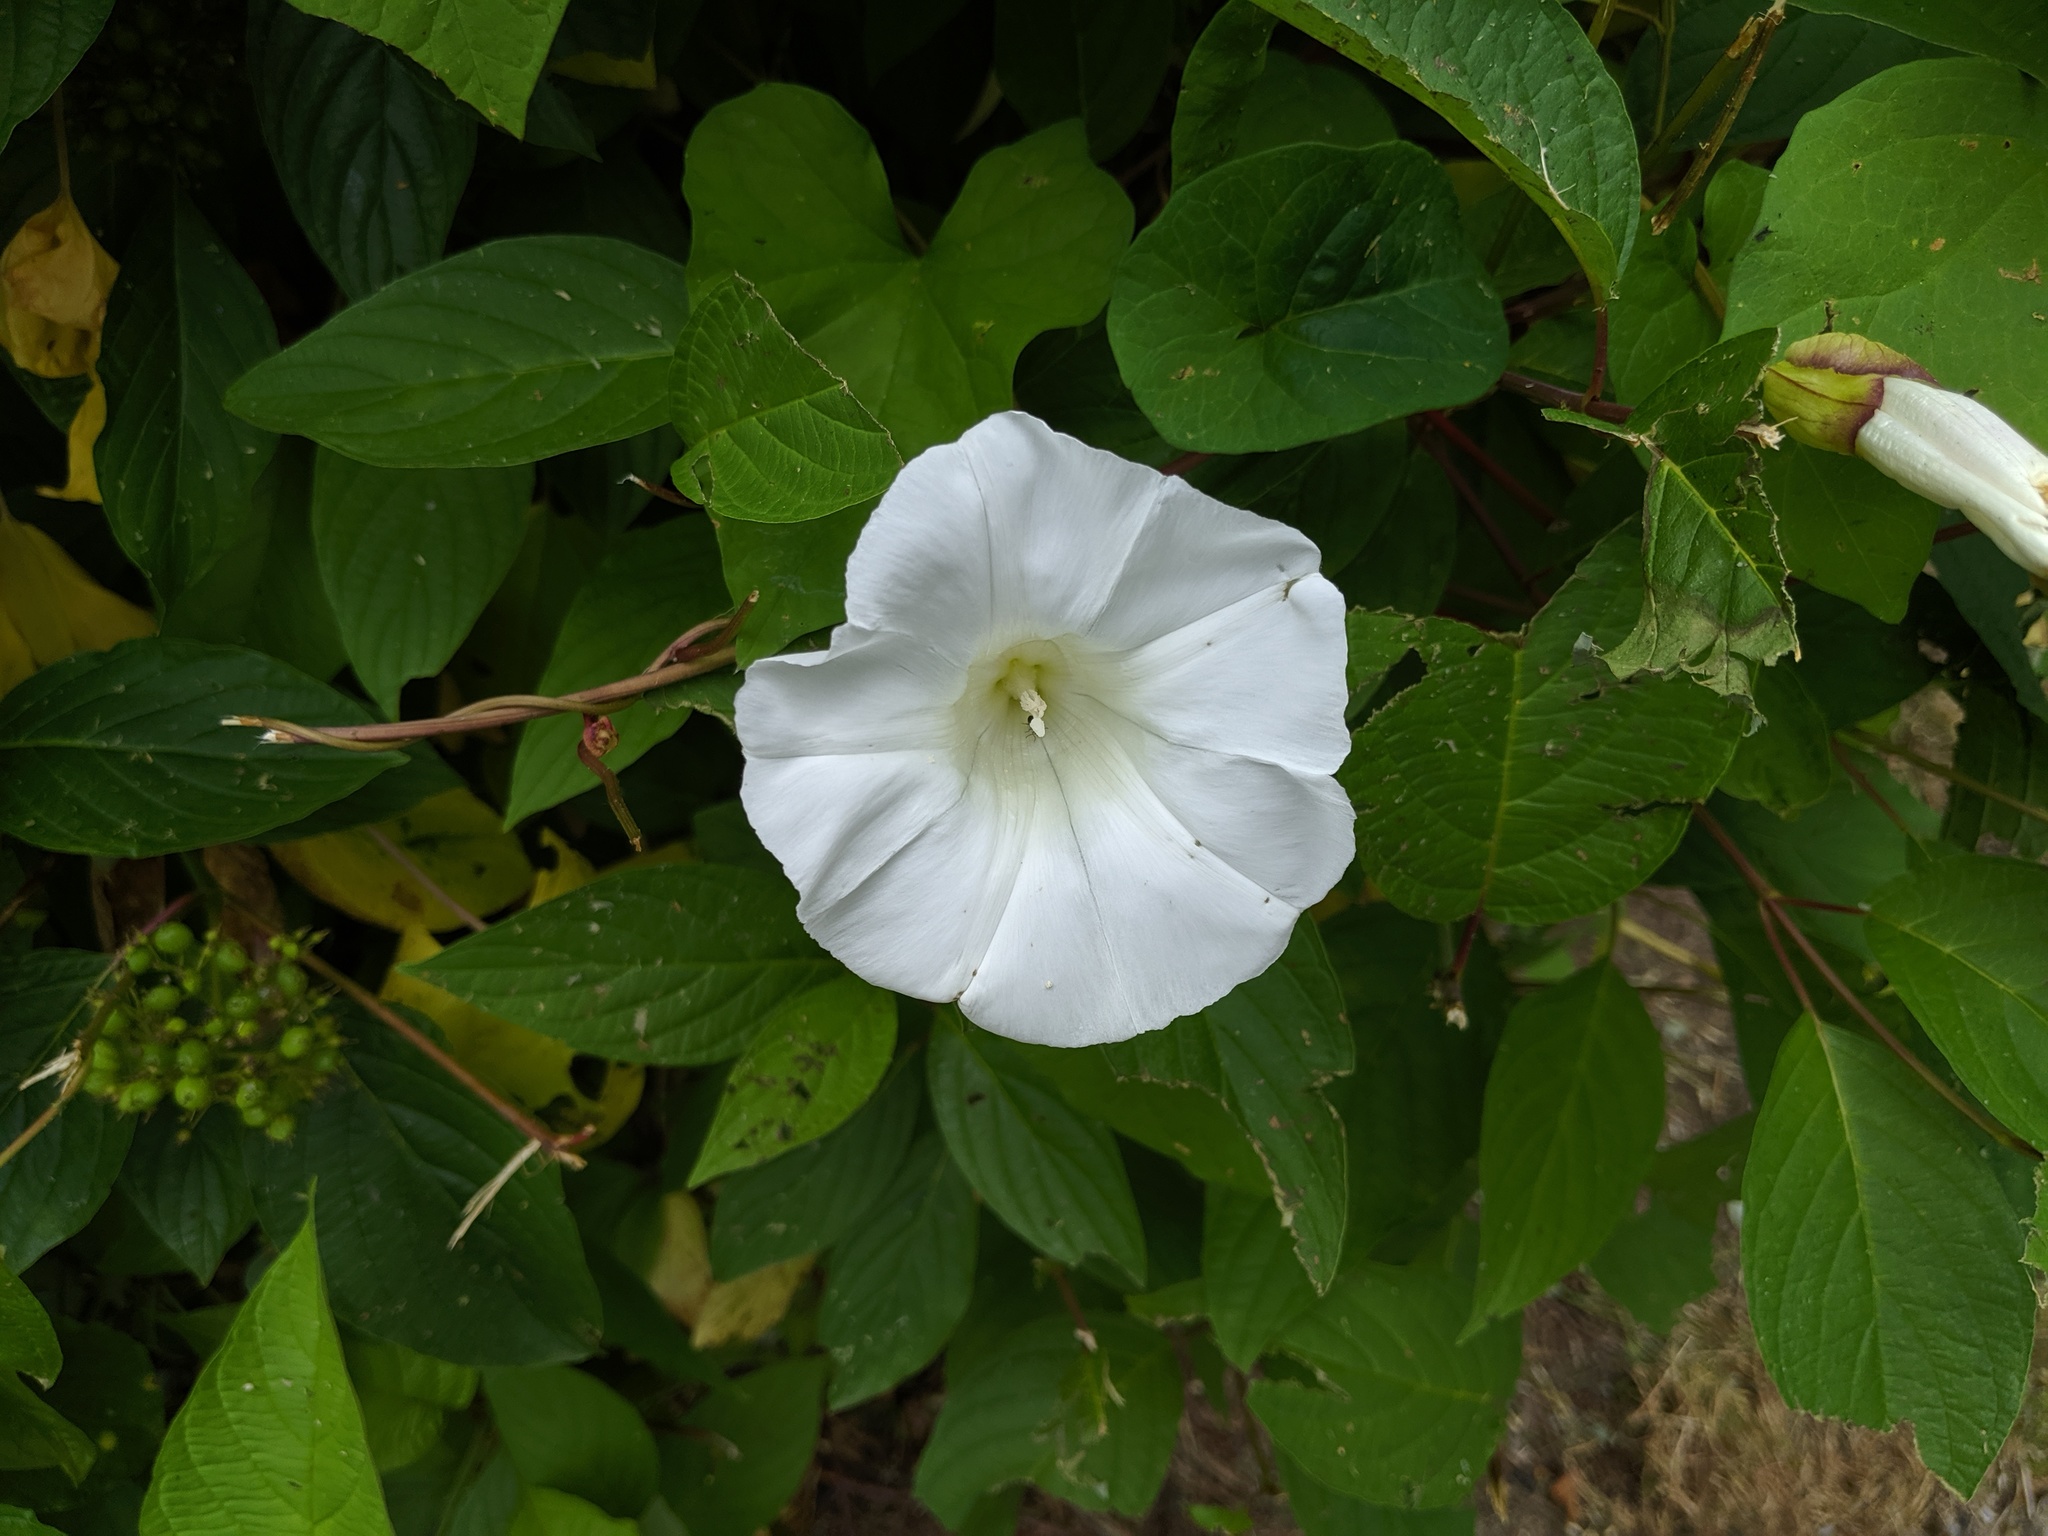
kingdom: Plantae
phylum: Tracheophyta
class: Magnoliopsida
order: Solanales
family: Convolvulaceae
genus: Calystegia
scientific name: Calystegia silvatica
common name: Large bindweed
